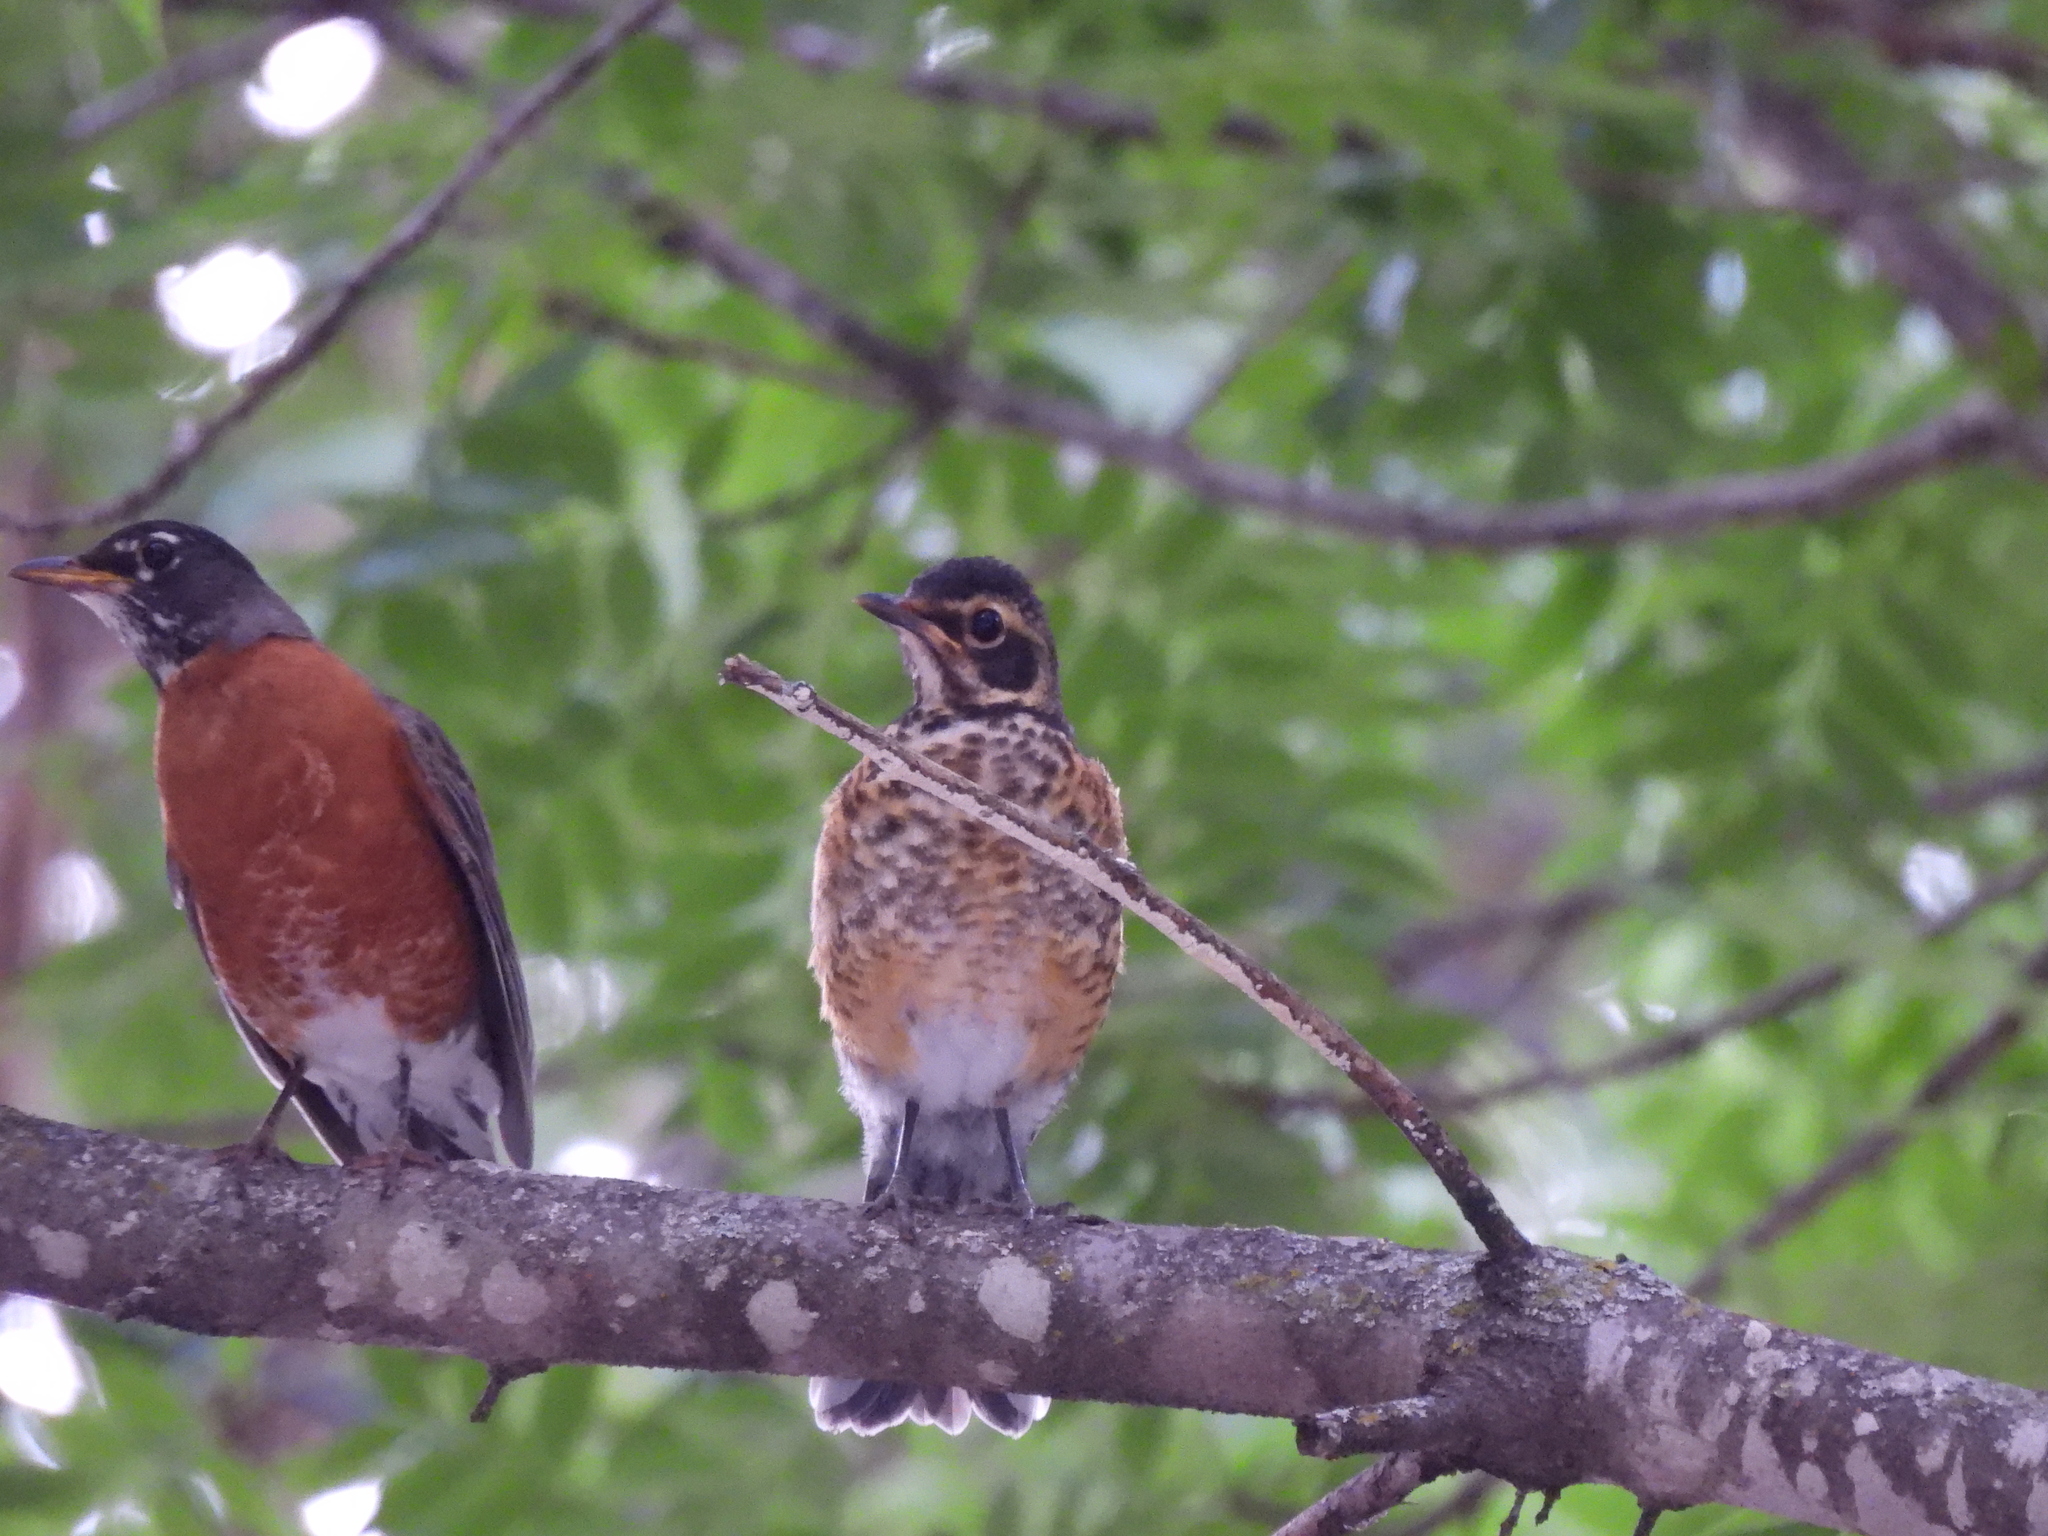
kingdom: Animalia
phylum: Chordata
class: Aves
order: Passeriformes
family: Turdidae
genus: Turdus
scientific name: Turdus migratorius
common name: American robin
